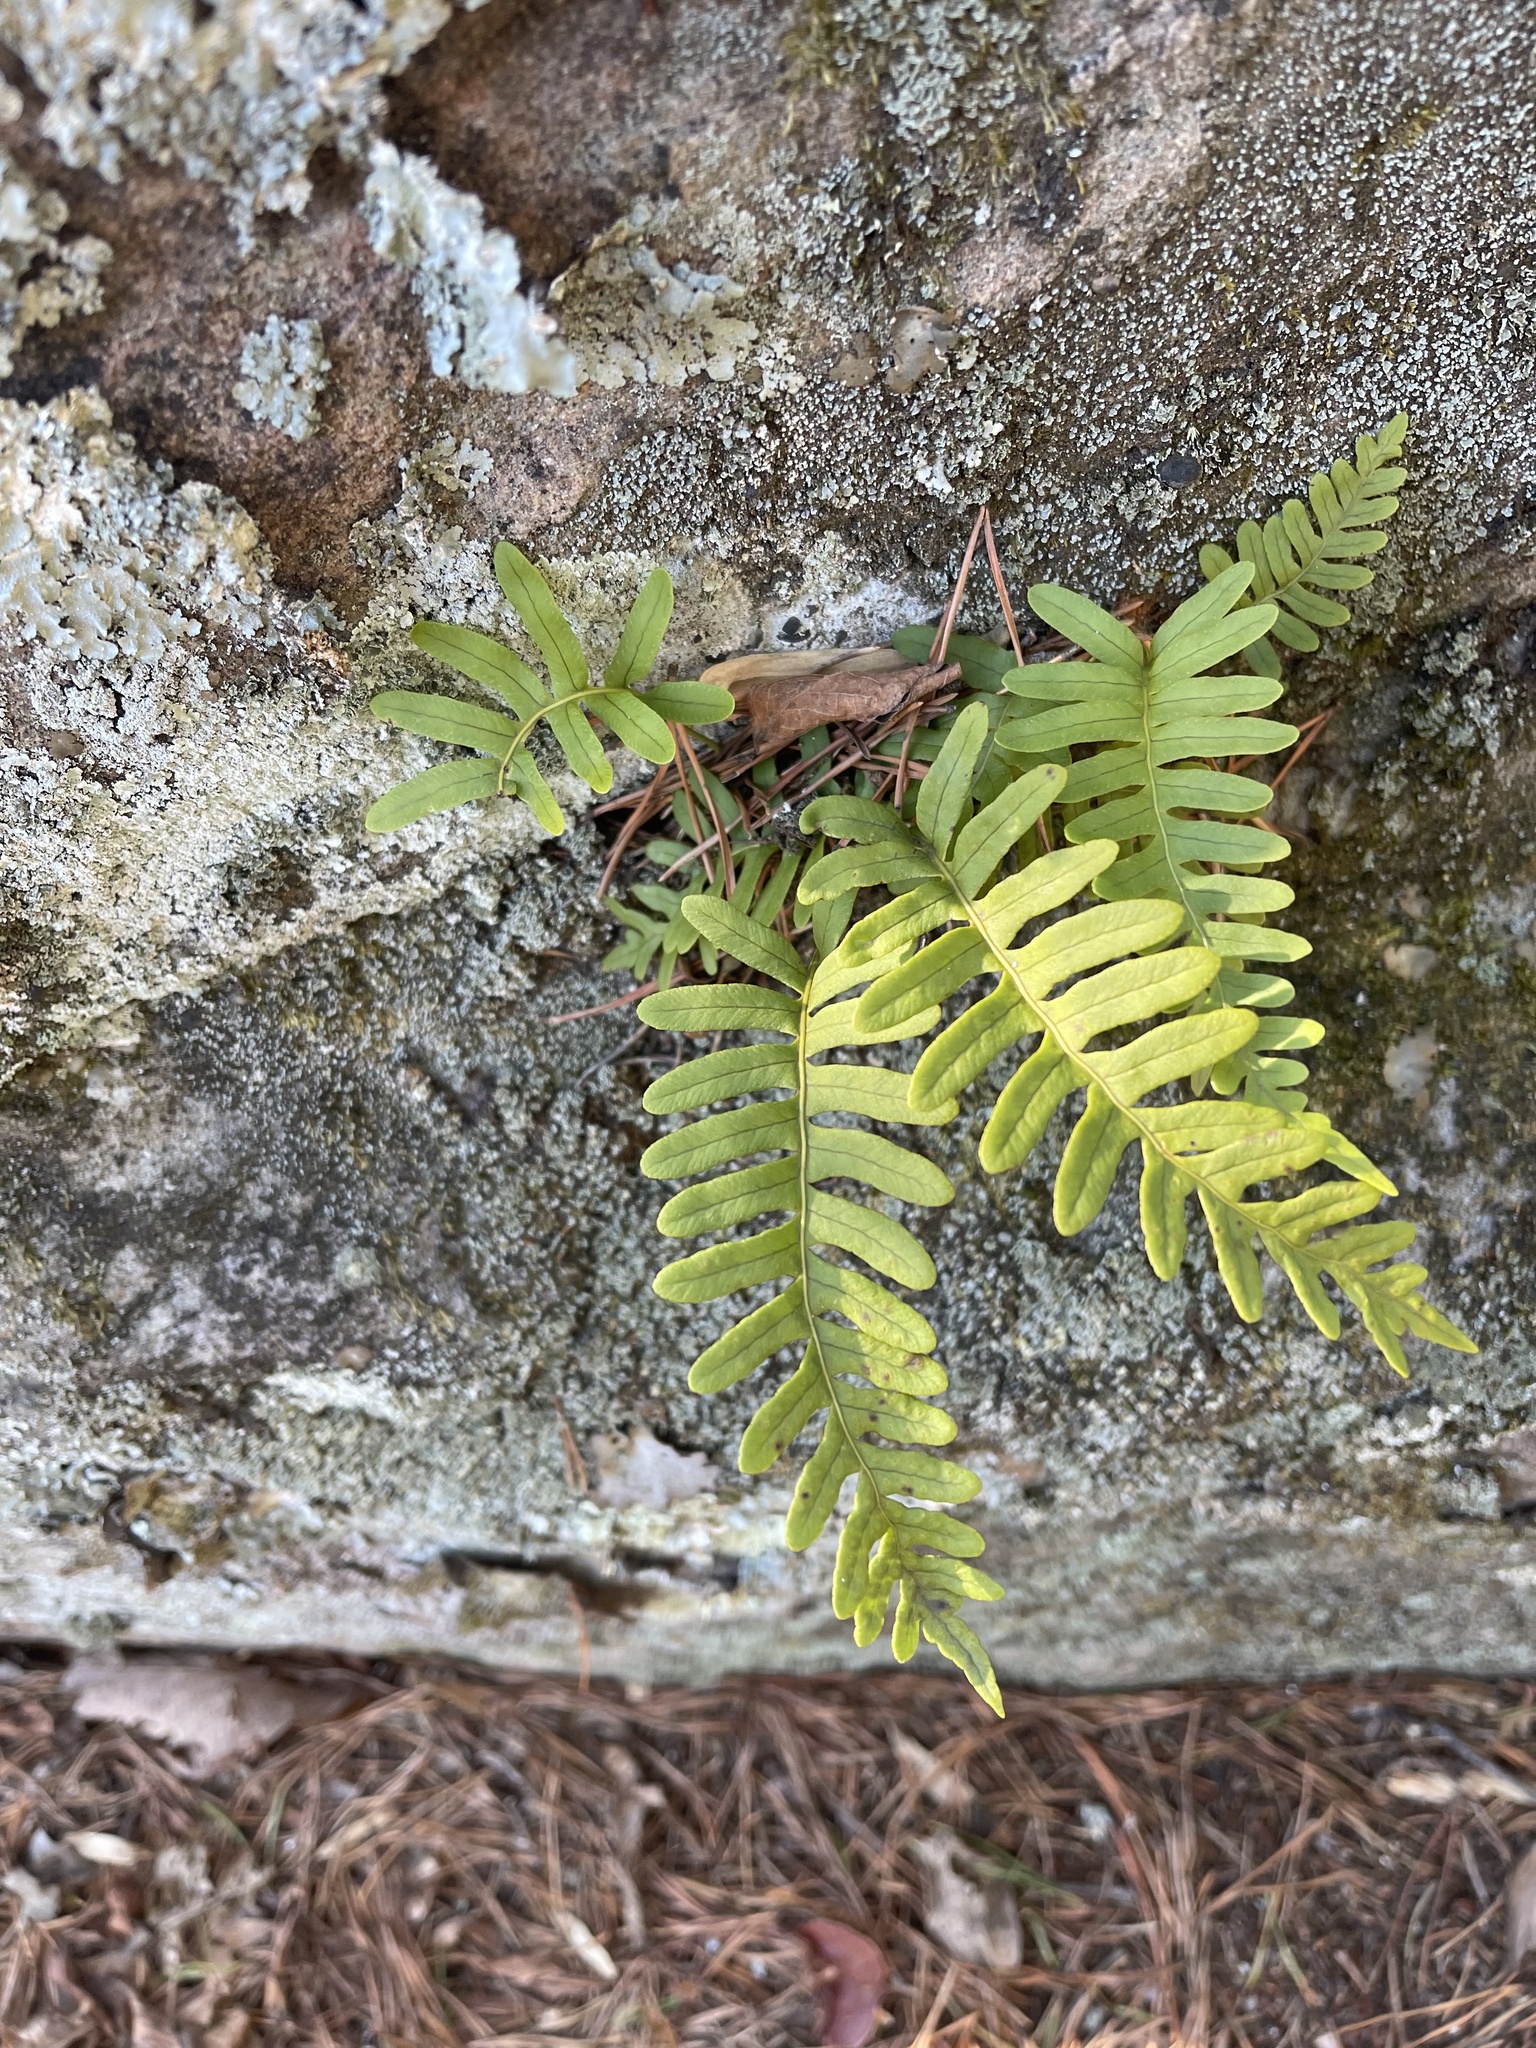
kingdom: Plantae
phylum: Tracheophyta
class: Polypodiopsida
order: Polypodiales
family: Polypodiaceae
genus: Polypodium
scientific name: Polypodium virginianum
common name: American wall fern
